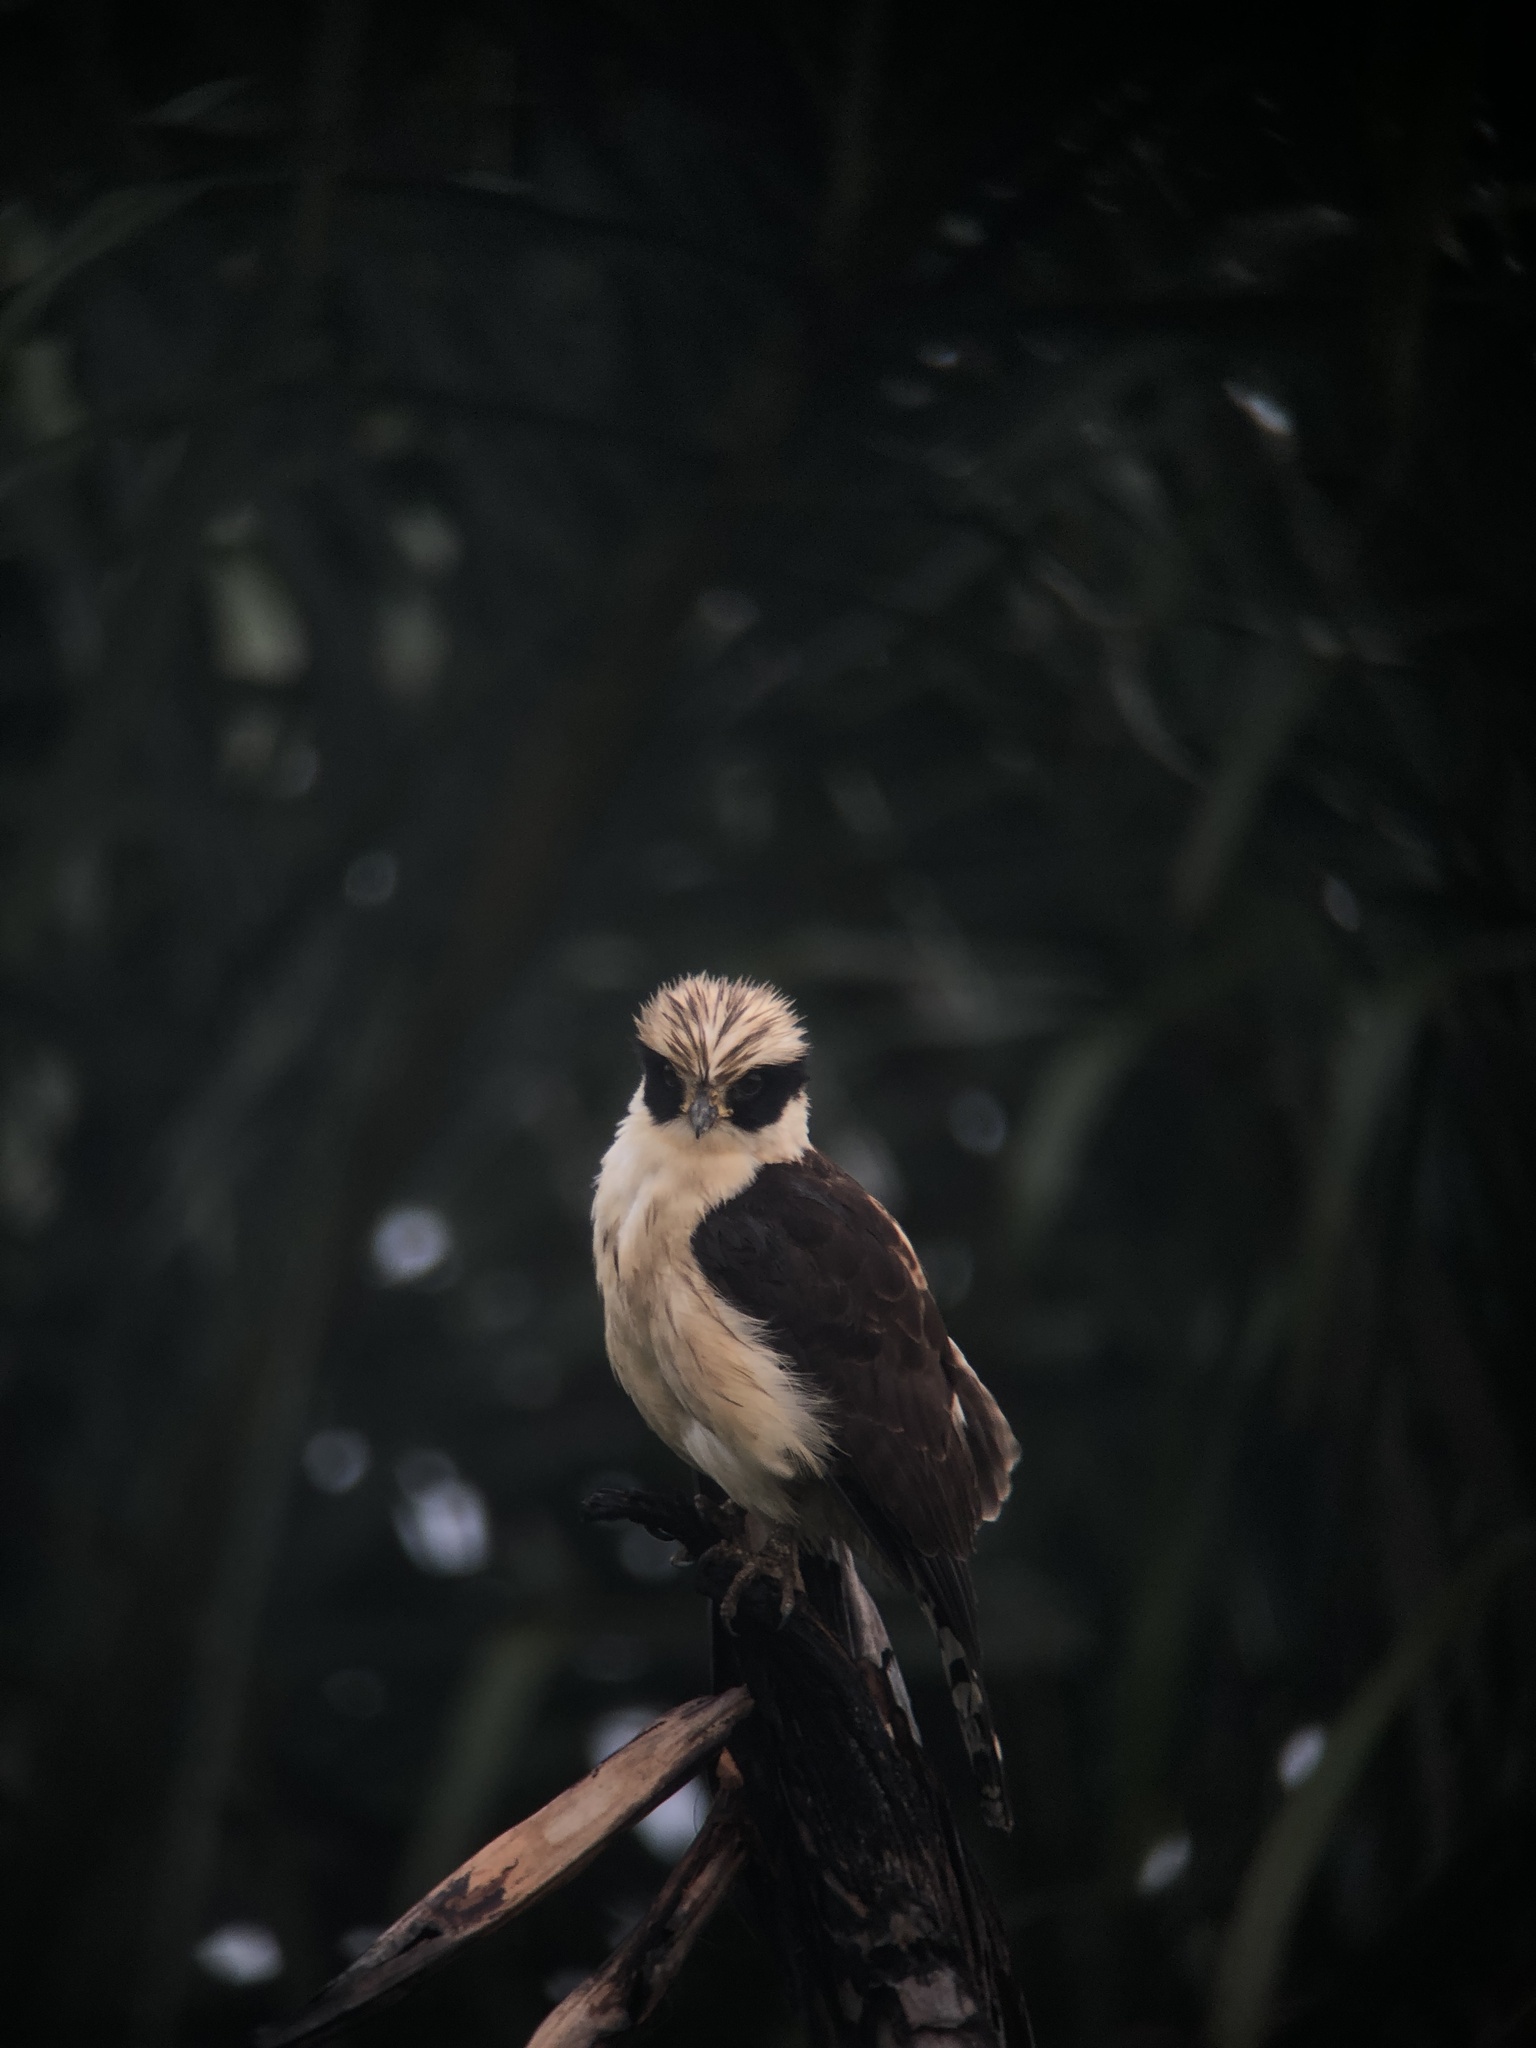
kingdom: Animalia
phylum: Chordata
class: Aves
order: Falconiformes
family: Falconidae
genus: Herpetotheres
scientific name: Herpetotheres cachinnans
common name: Laughing falcon
